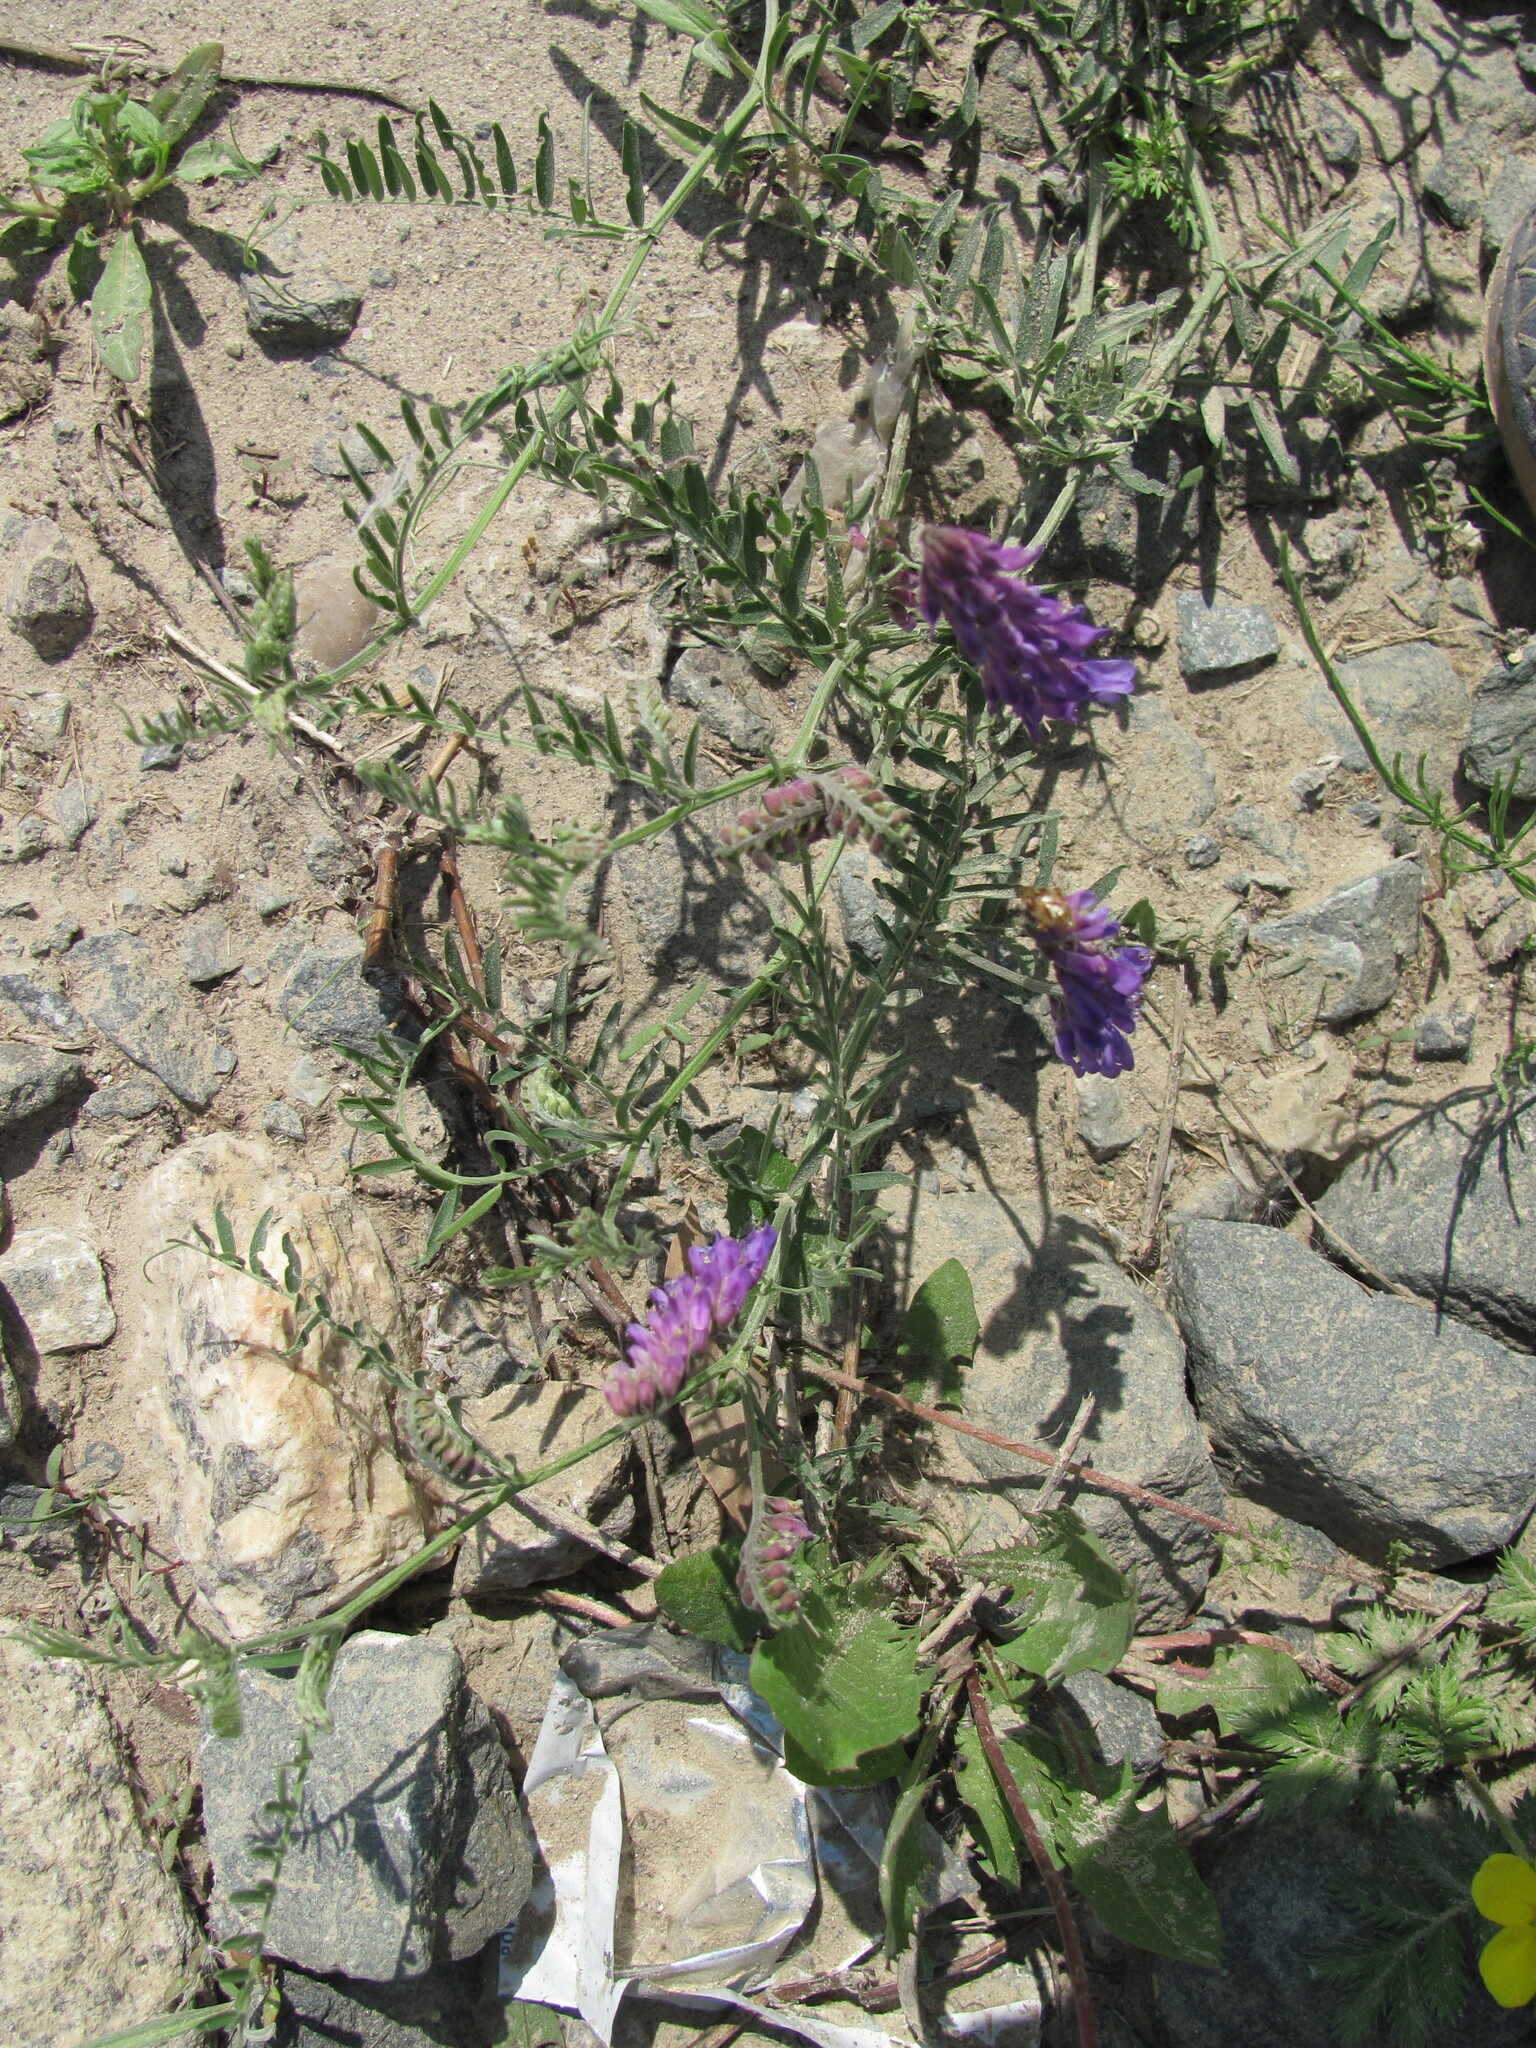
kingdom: Plantae
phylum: Tracheophyta
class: Magnoliopsida
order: Fabales
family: Fabaceae
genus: Vicia
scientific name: Vicia cracca
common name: Bird vetch
